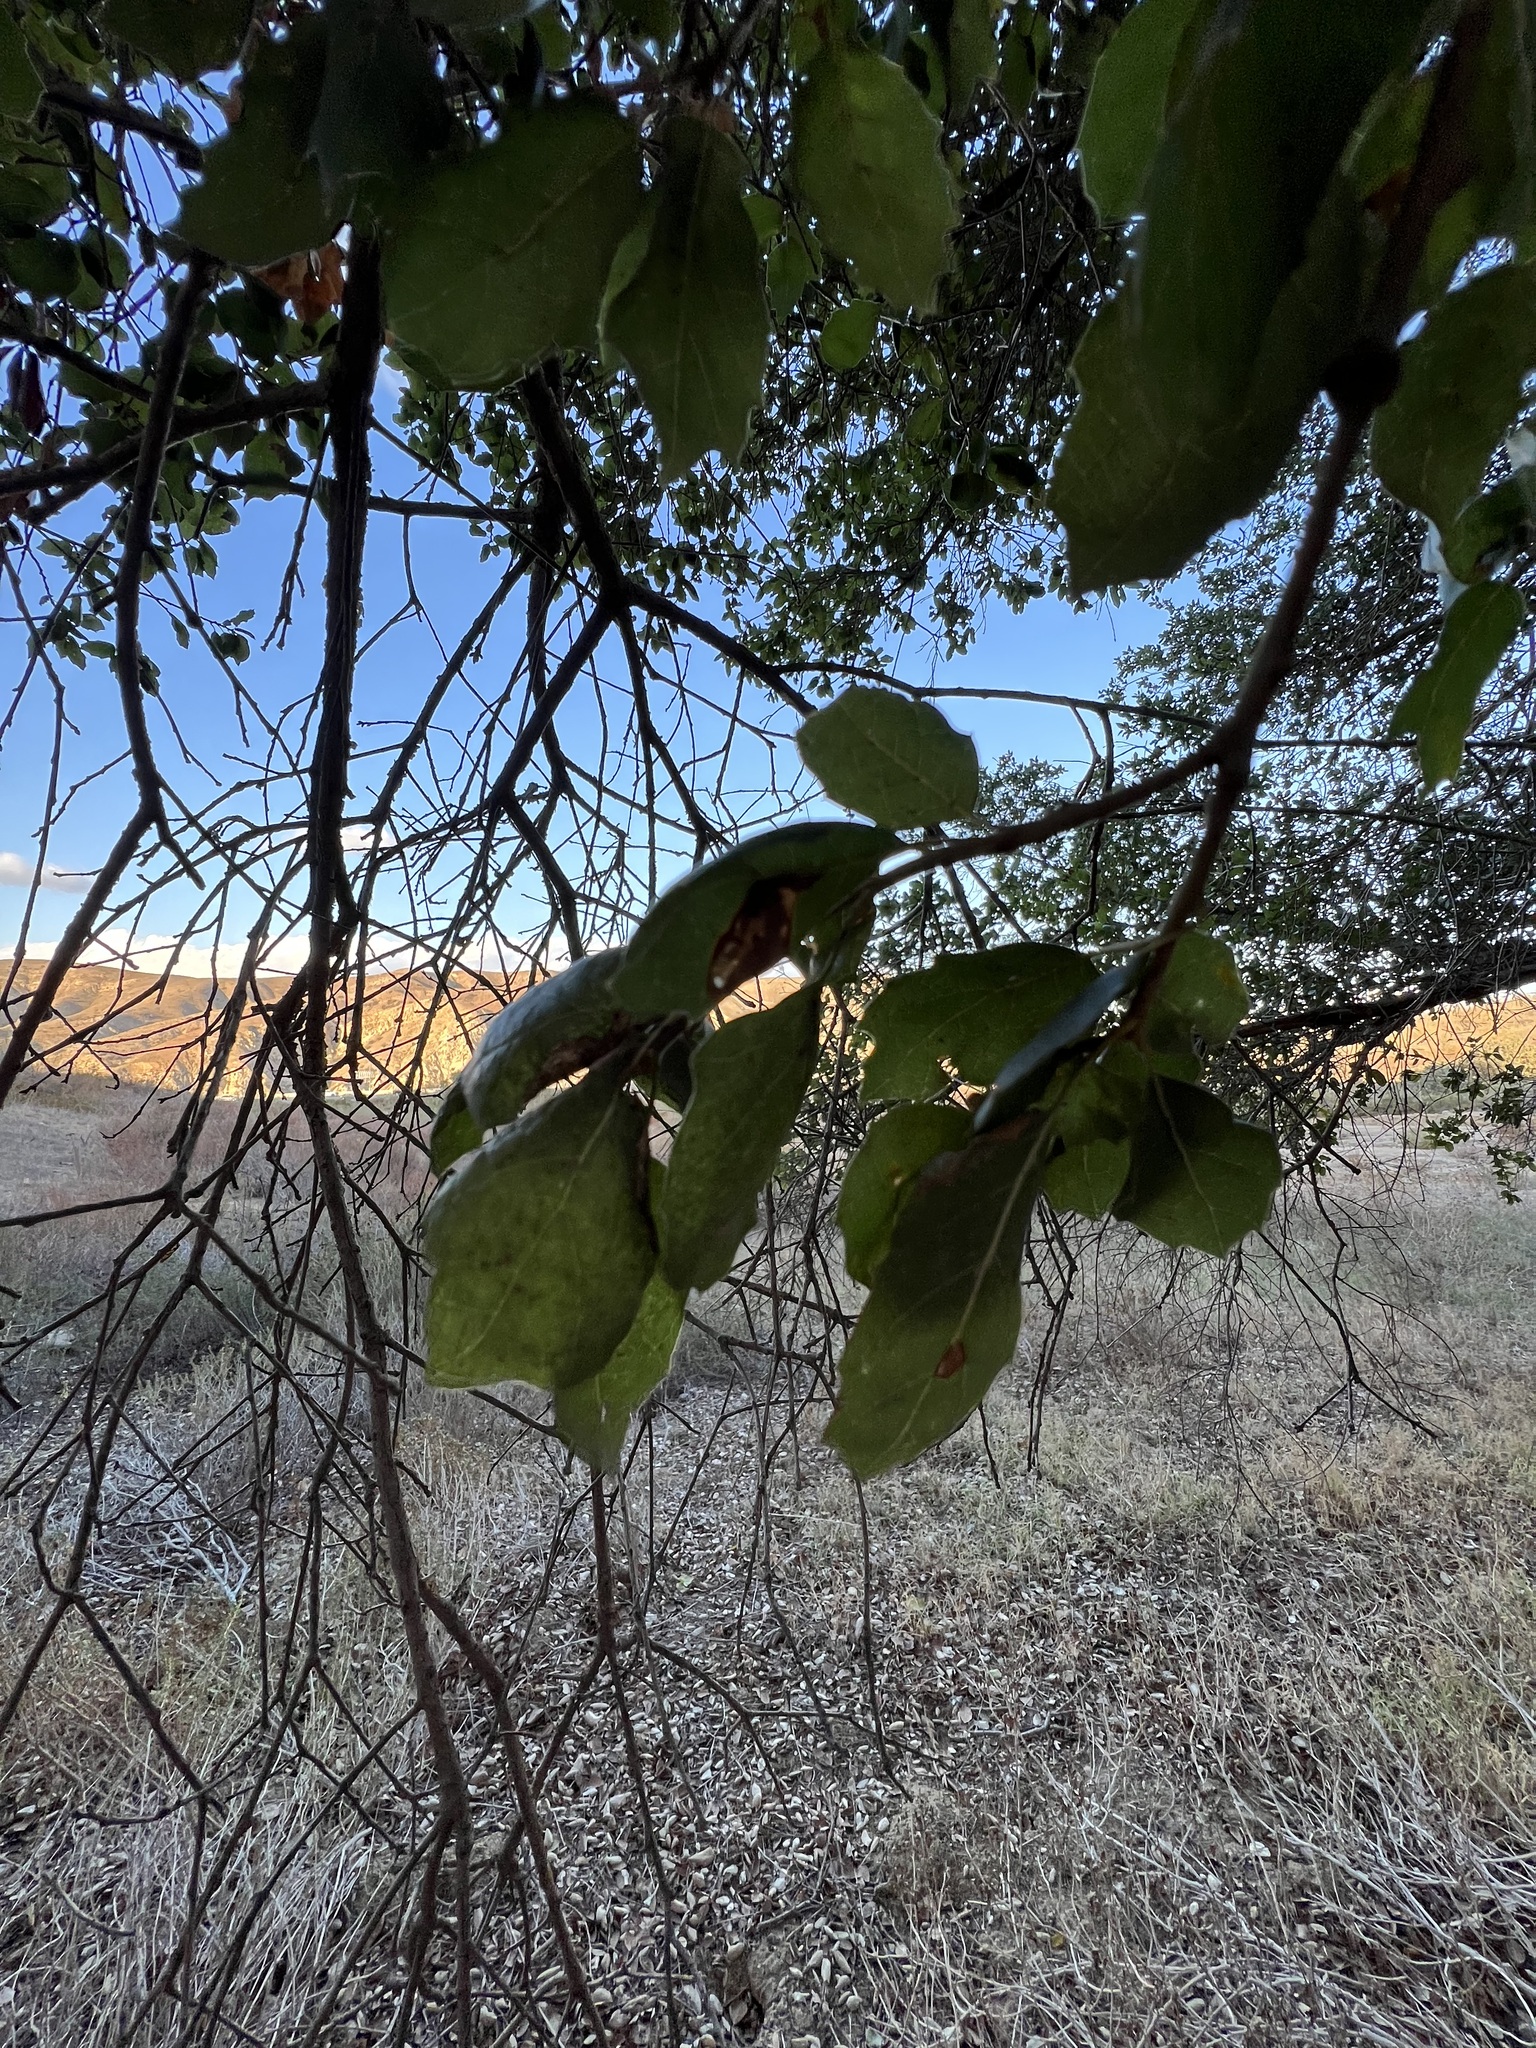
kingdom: Plantae
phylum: Tracheophyta
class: Magnoliopsida
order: Fagales
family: Fagaceae
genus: Quercus
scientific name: Quercus agrifolia
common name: California live oak
